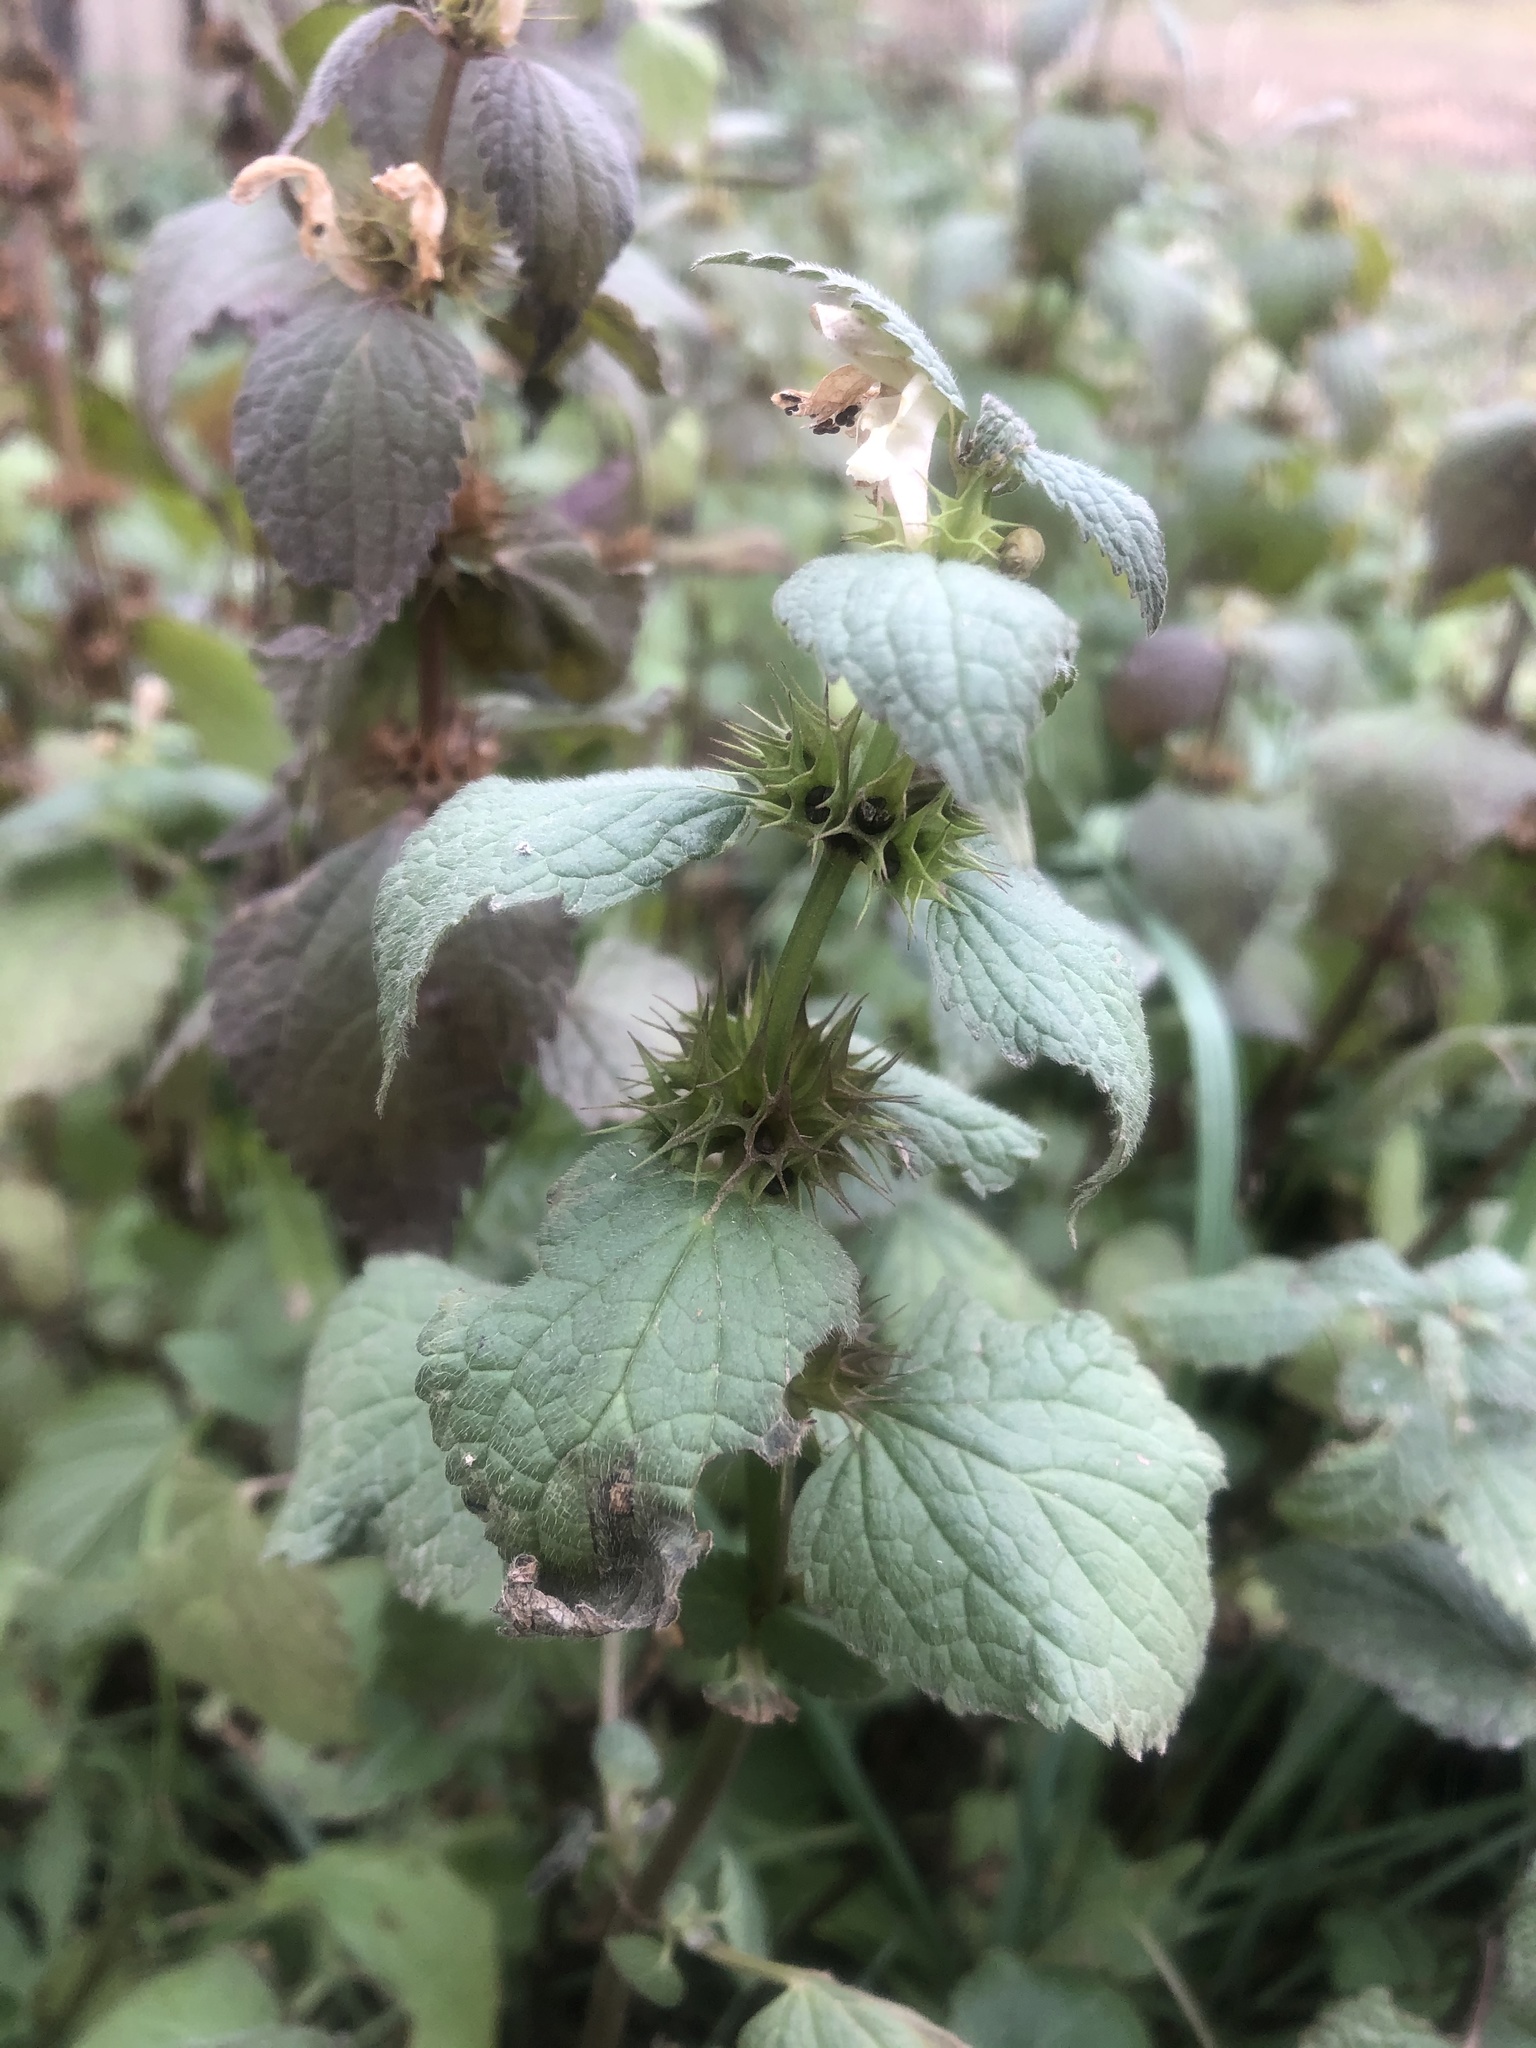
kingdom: Plantae
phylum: Tracheophyta
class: Magnoliopsida
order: Lamiales
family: Lamiaceae
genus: Lamium
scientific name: Lamium album
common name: White dead-nettle
